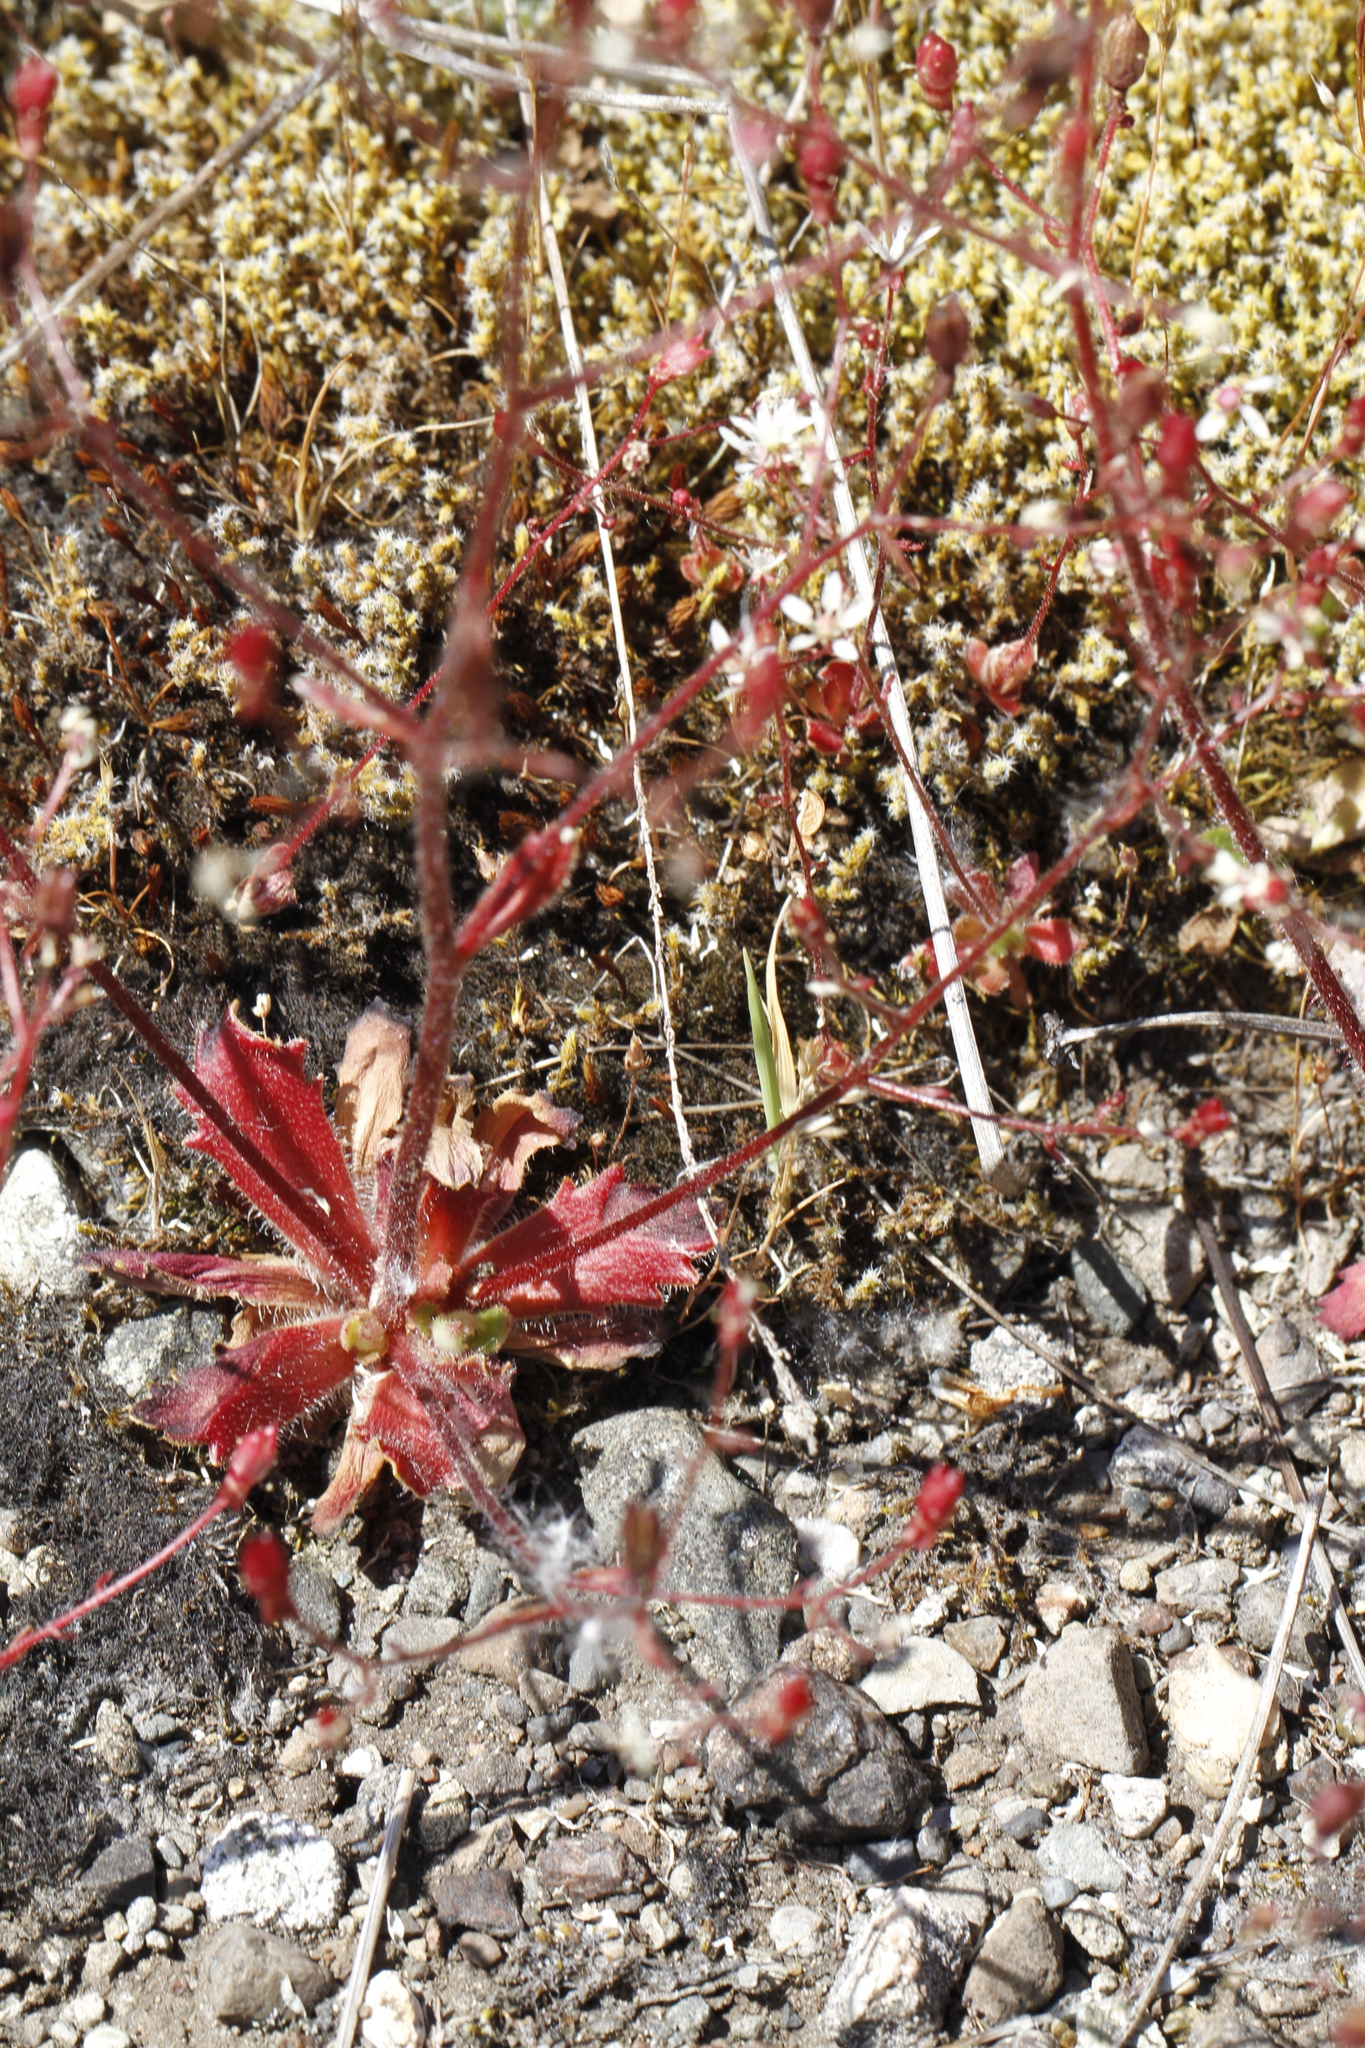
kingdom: Plantae
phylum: Tracheophyta
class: Magnoliopsida
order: Saxifragales
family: Saxifragaceae
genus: Micranthes
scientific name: Micranthes ferruginea
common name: Rusty saxifrage
